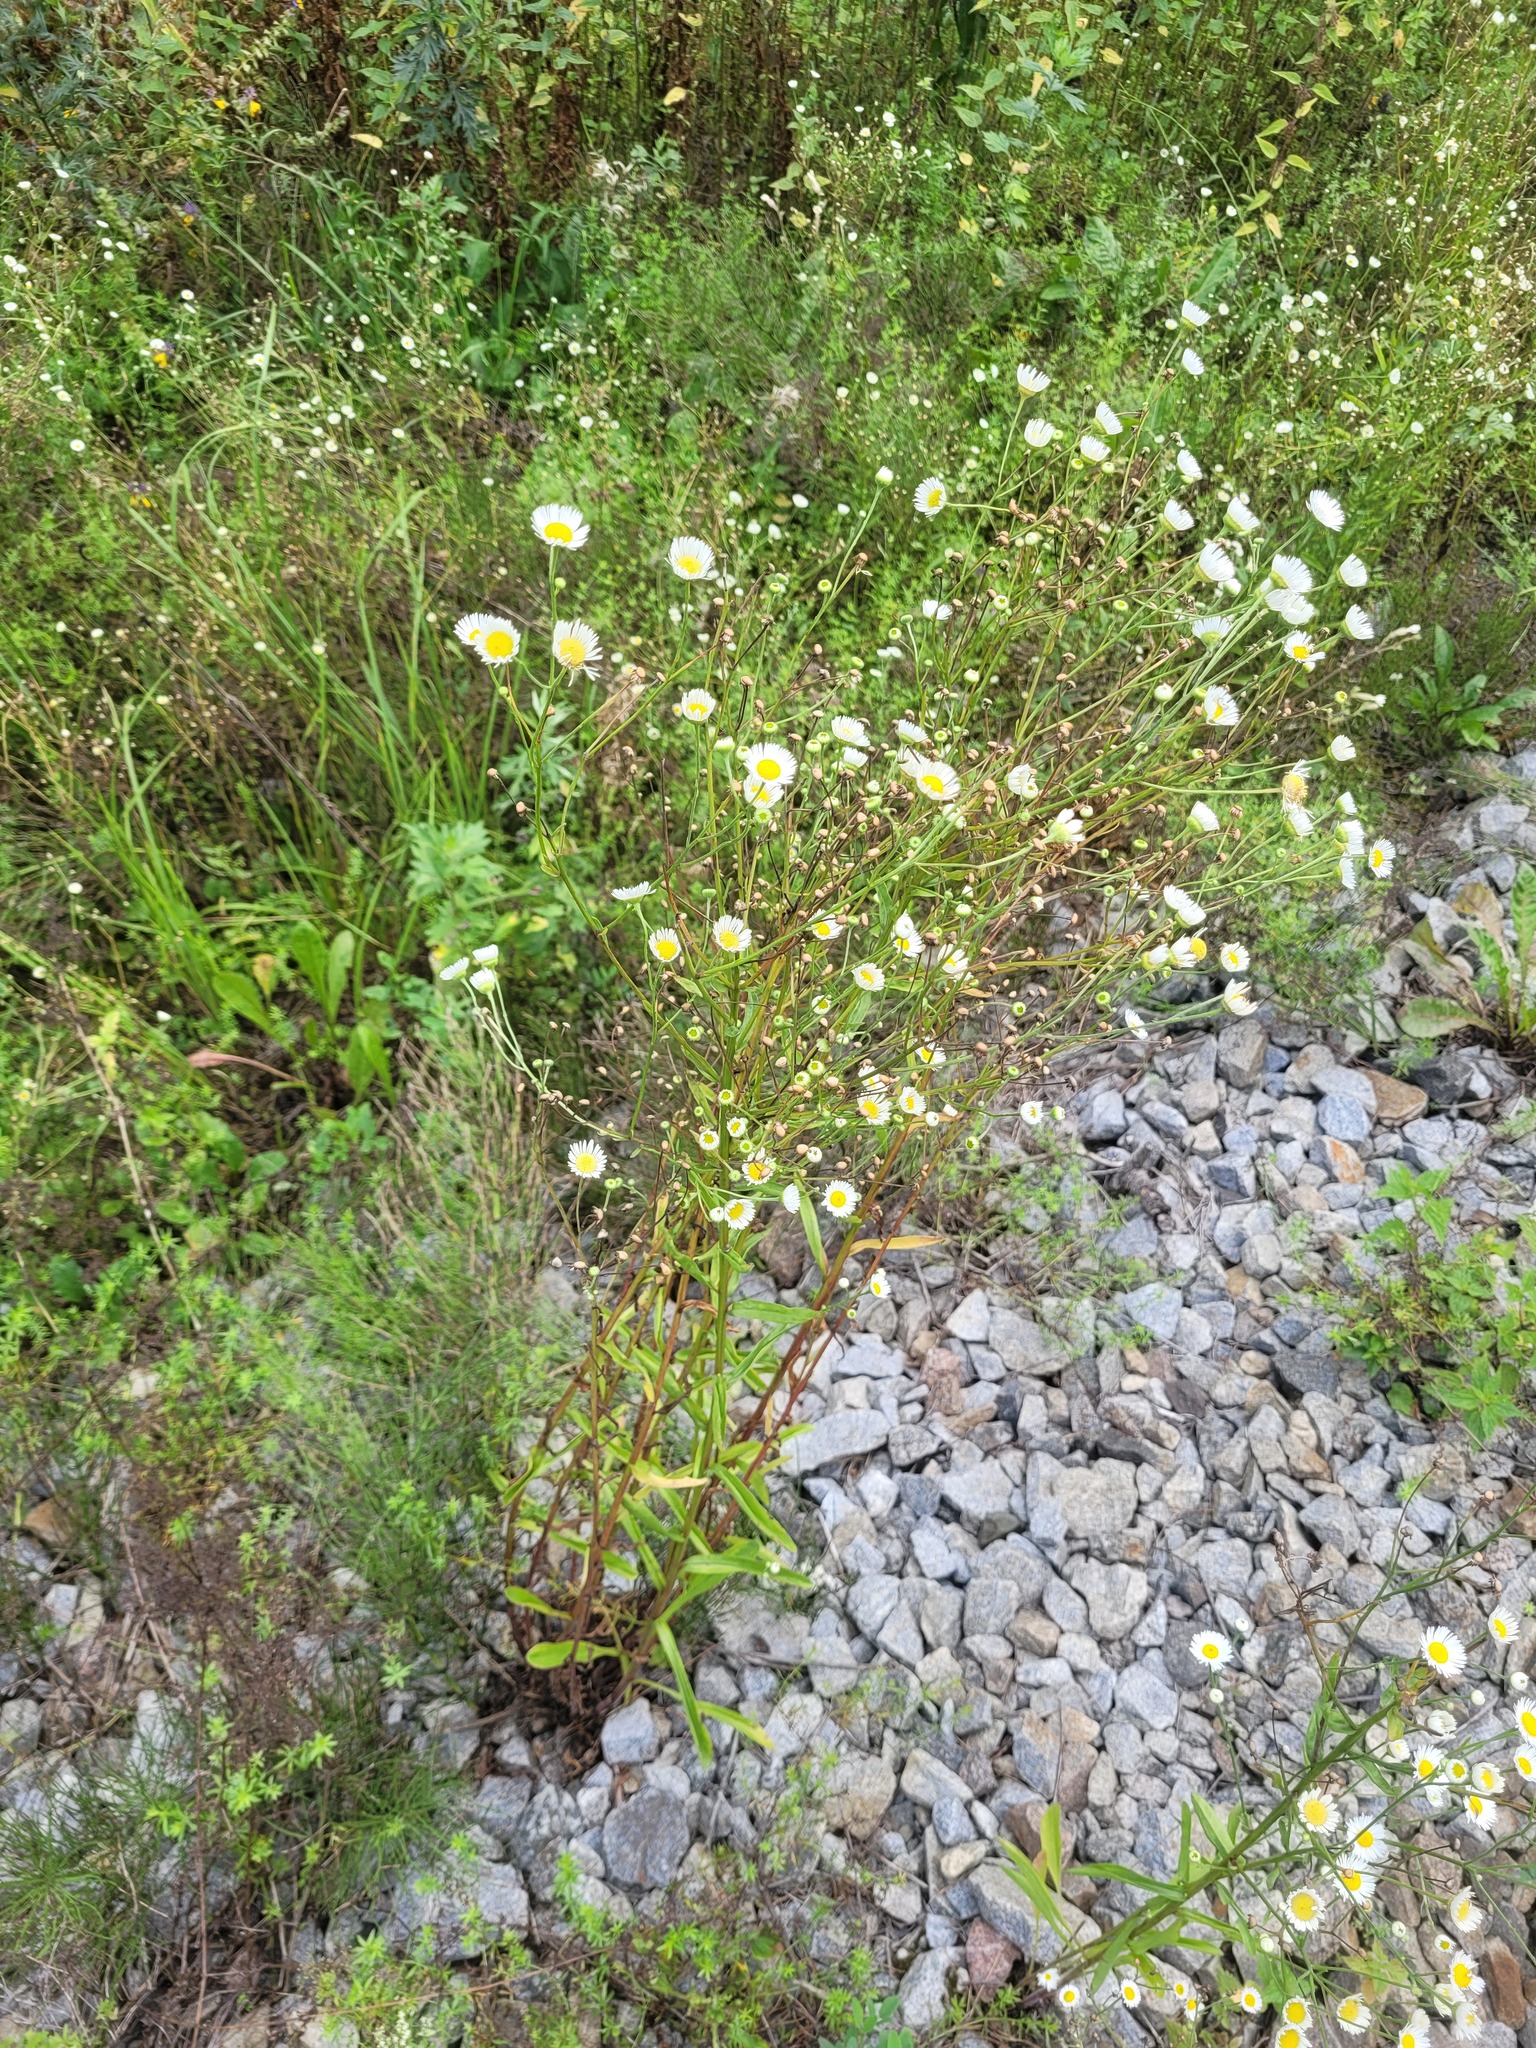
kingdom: Plantae
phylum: Tracheophyta
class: Magnoliopsida
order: Asterales
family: Asteraceae
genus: Erigeron
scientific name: Erigeron annuus
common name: Tall fleabane
